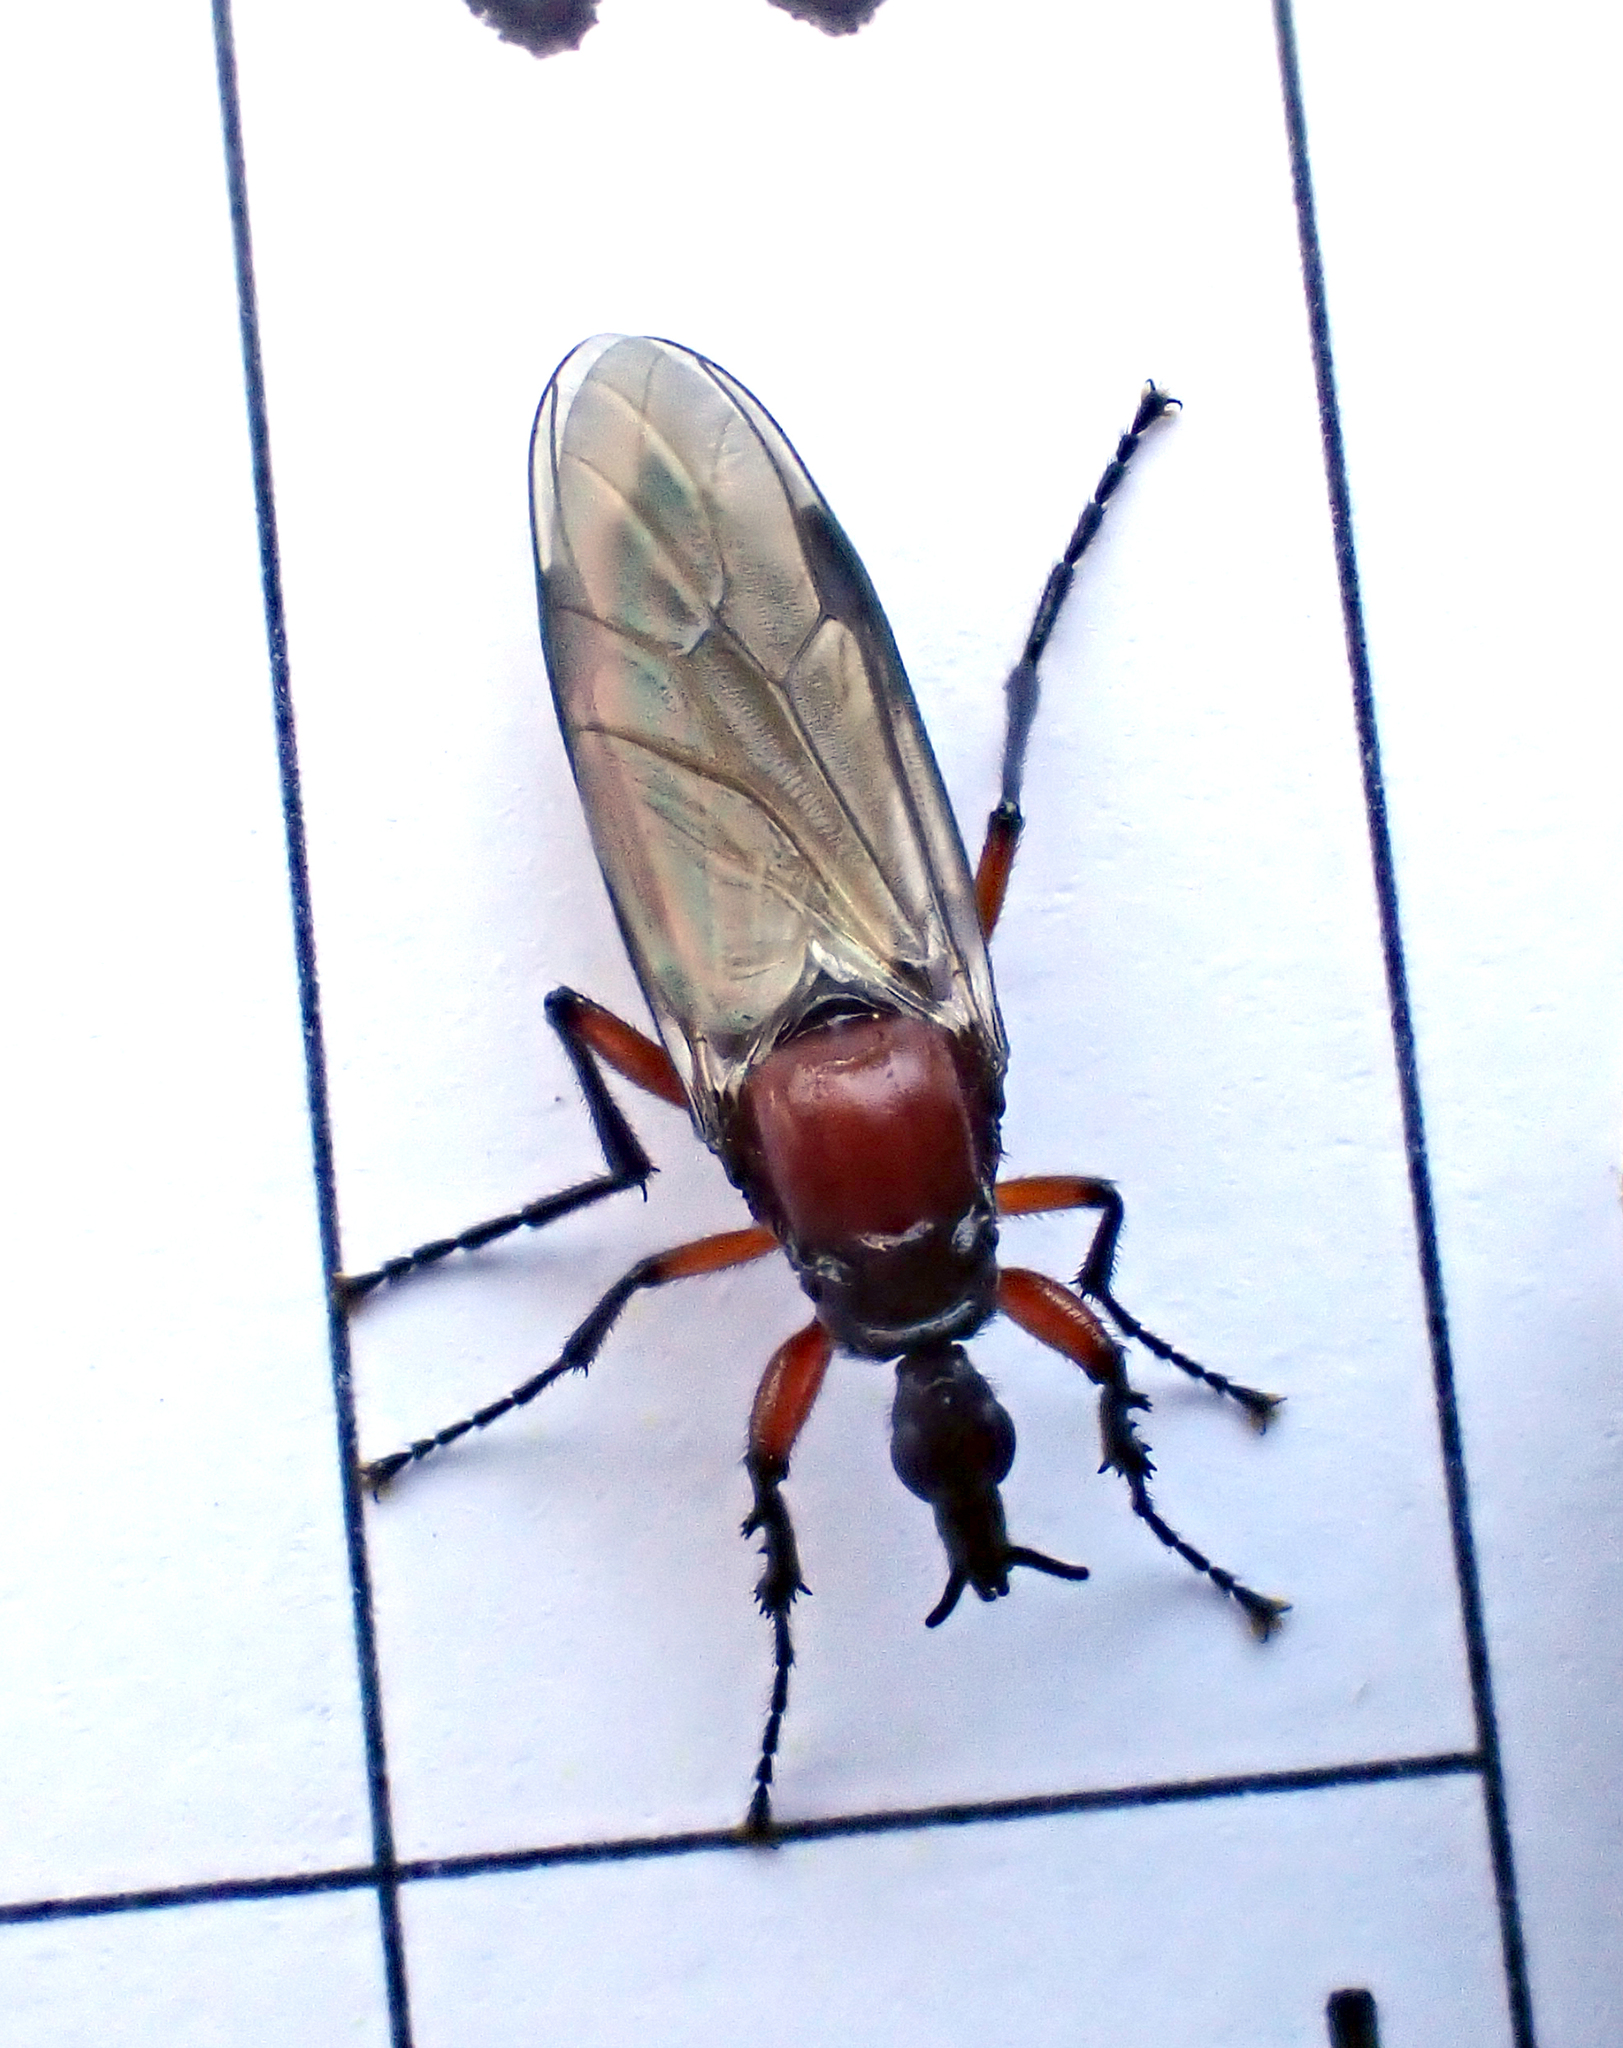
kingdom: Animalia
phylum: Arthropoda
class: Insecta
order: Diptera
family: Bibionidae
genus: Dilophus
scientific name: Dilophus nigrostigma
